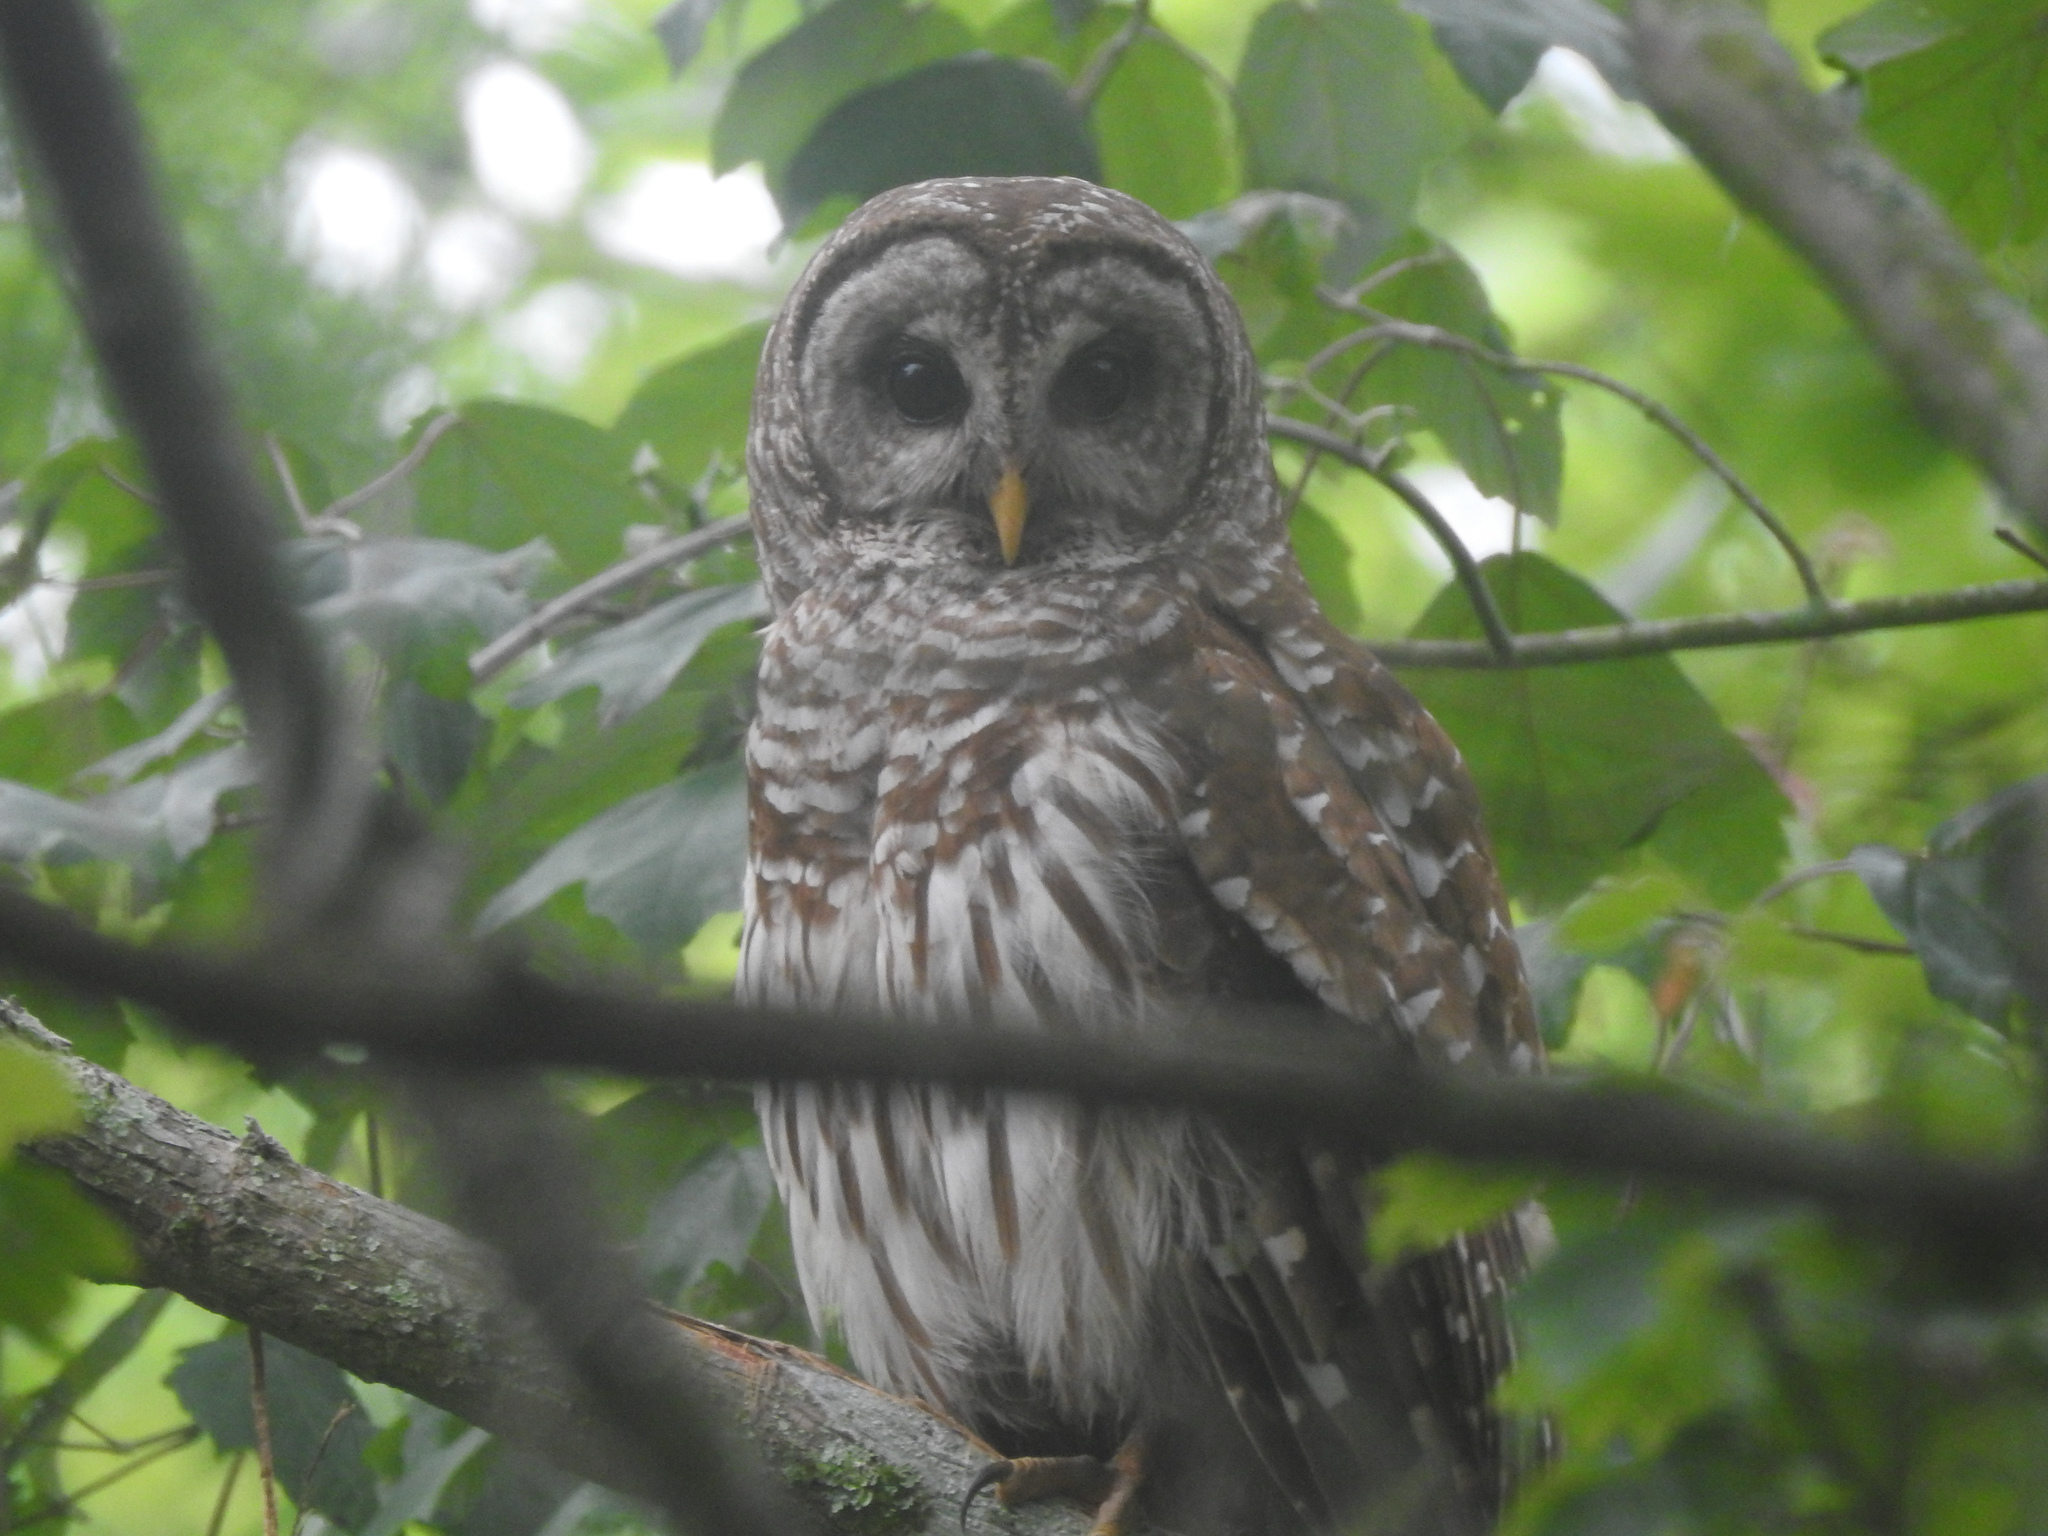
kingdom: Animalia
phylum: Chordata
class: Aves
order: Strigiformes
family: Strigidae
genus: Strix
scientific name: Strix varia
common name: Barred owl
